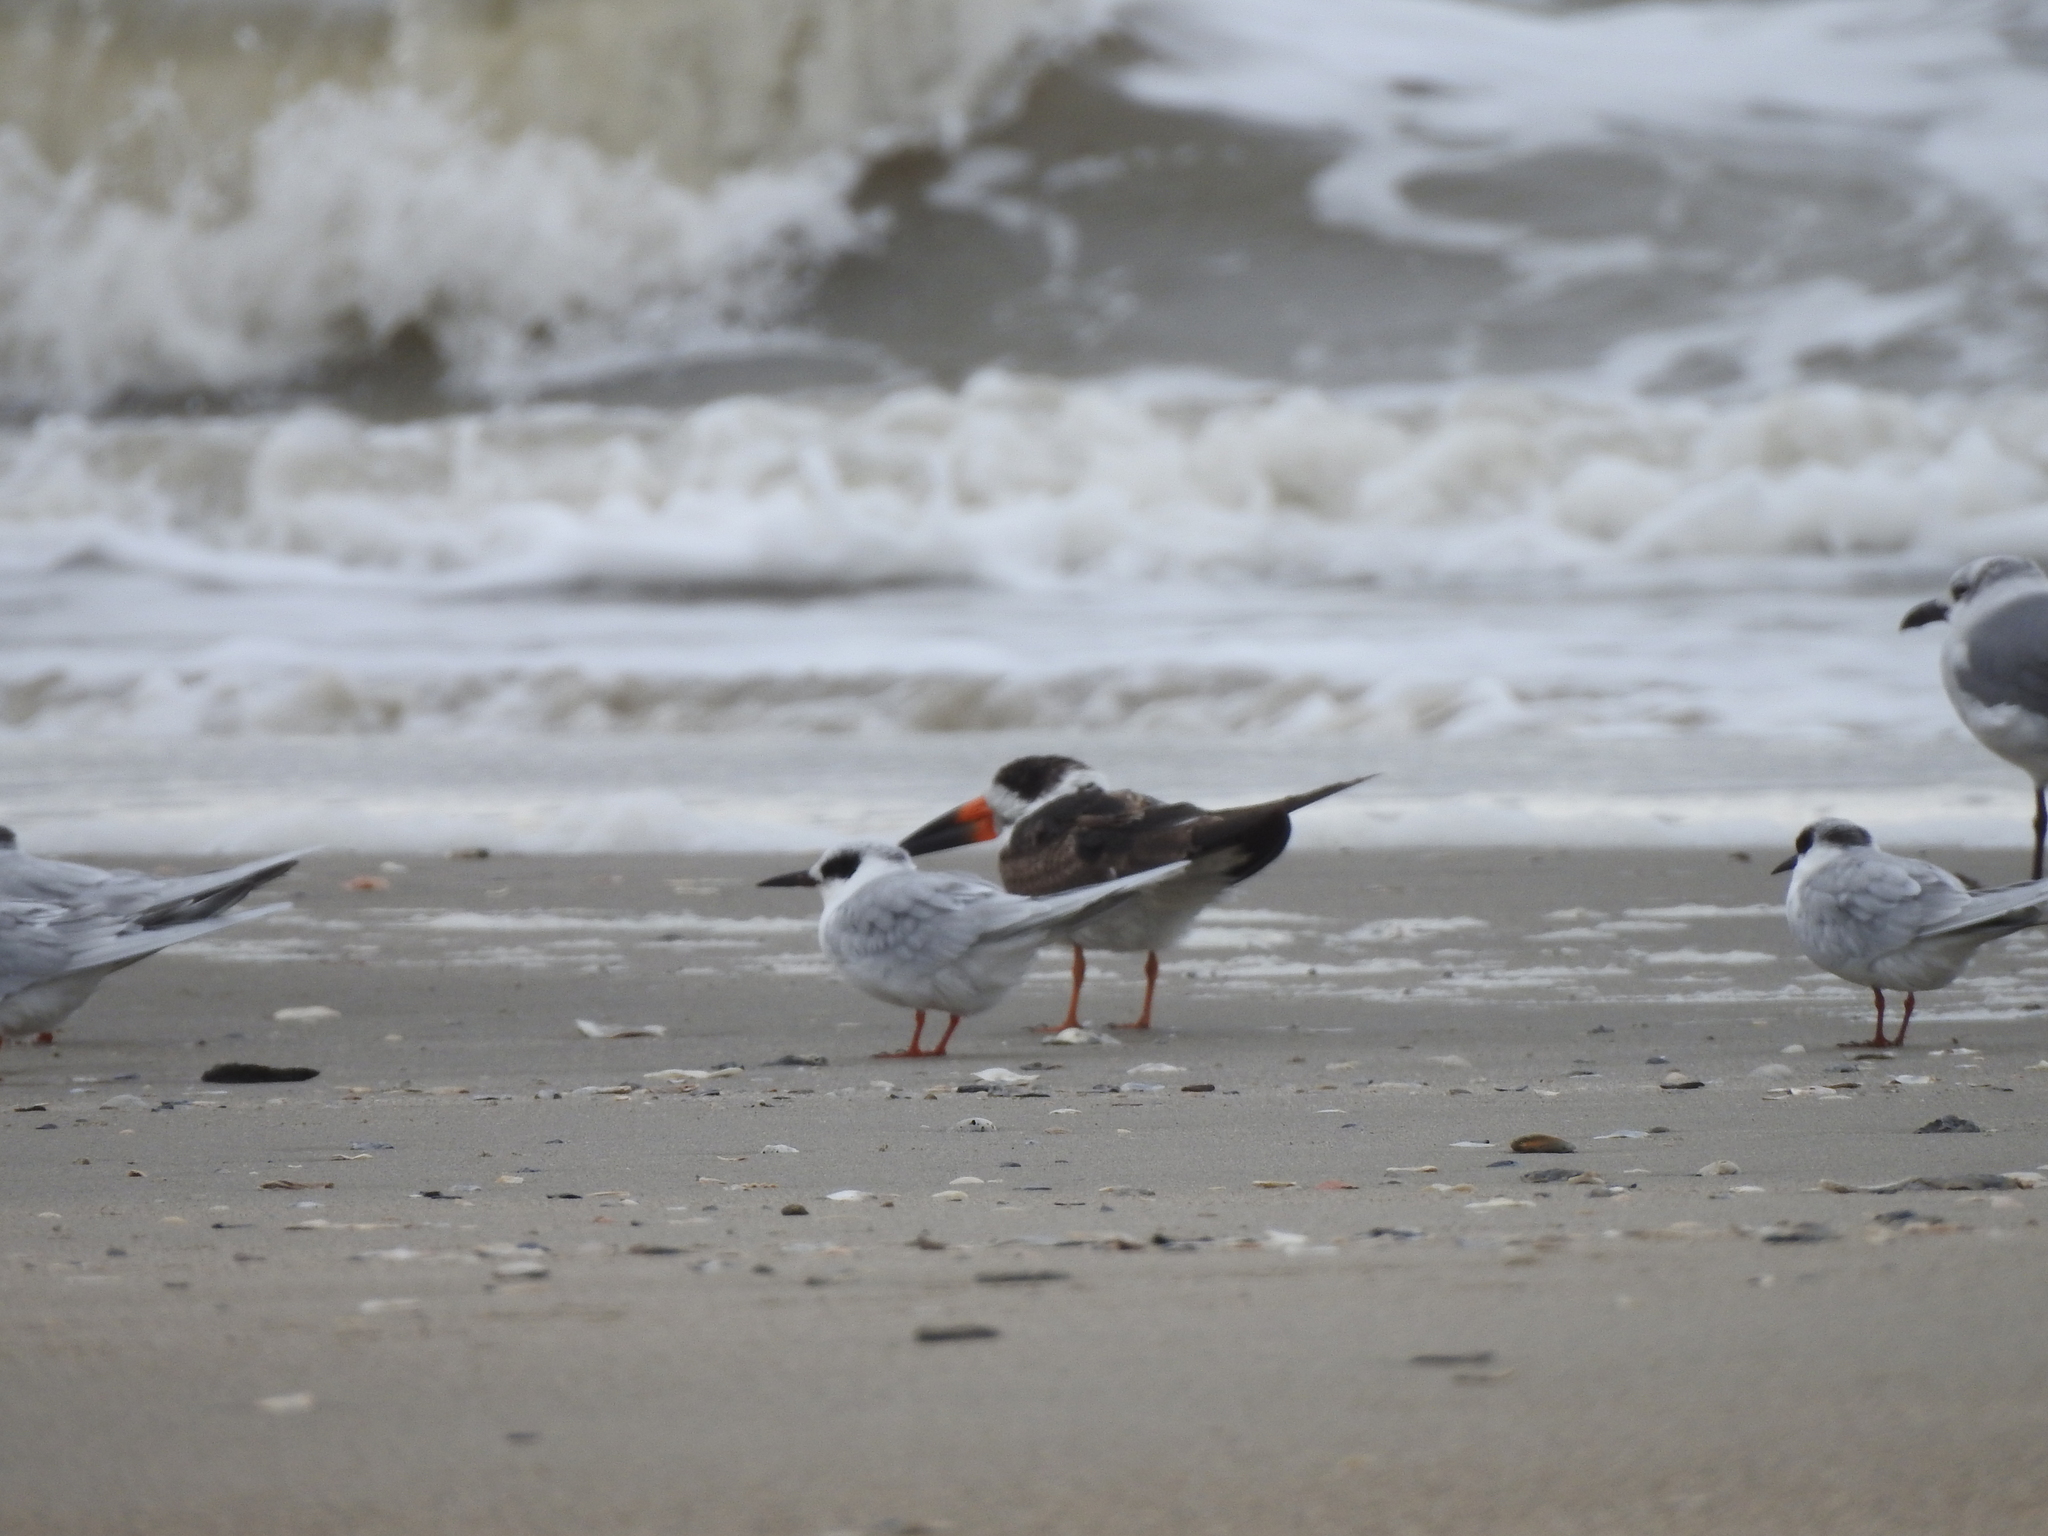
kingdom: Animalia
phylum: Chordata
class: Aves
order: Charadriiformes
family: Laridae
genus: Rynchops
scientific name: Rynchops niger
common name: Black skimmer
